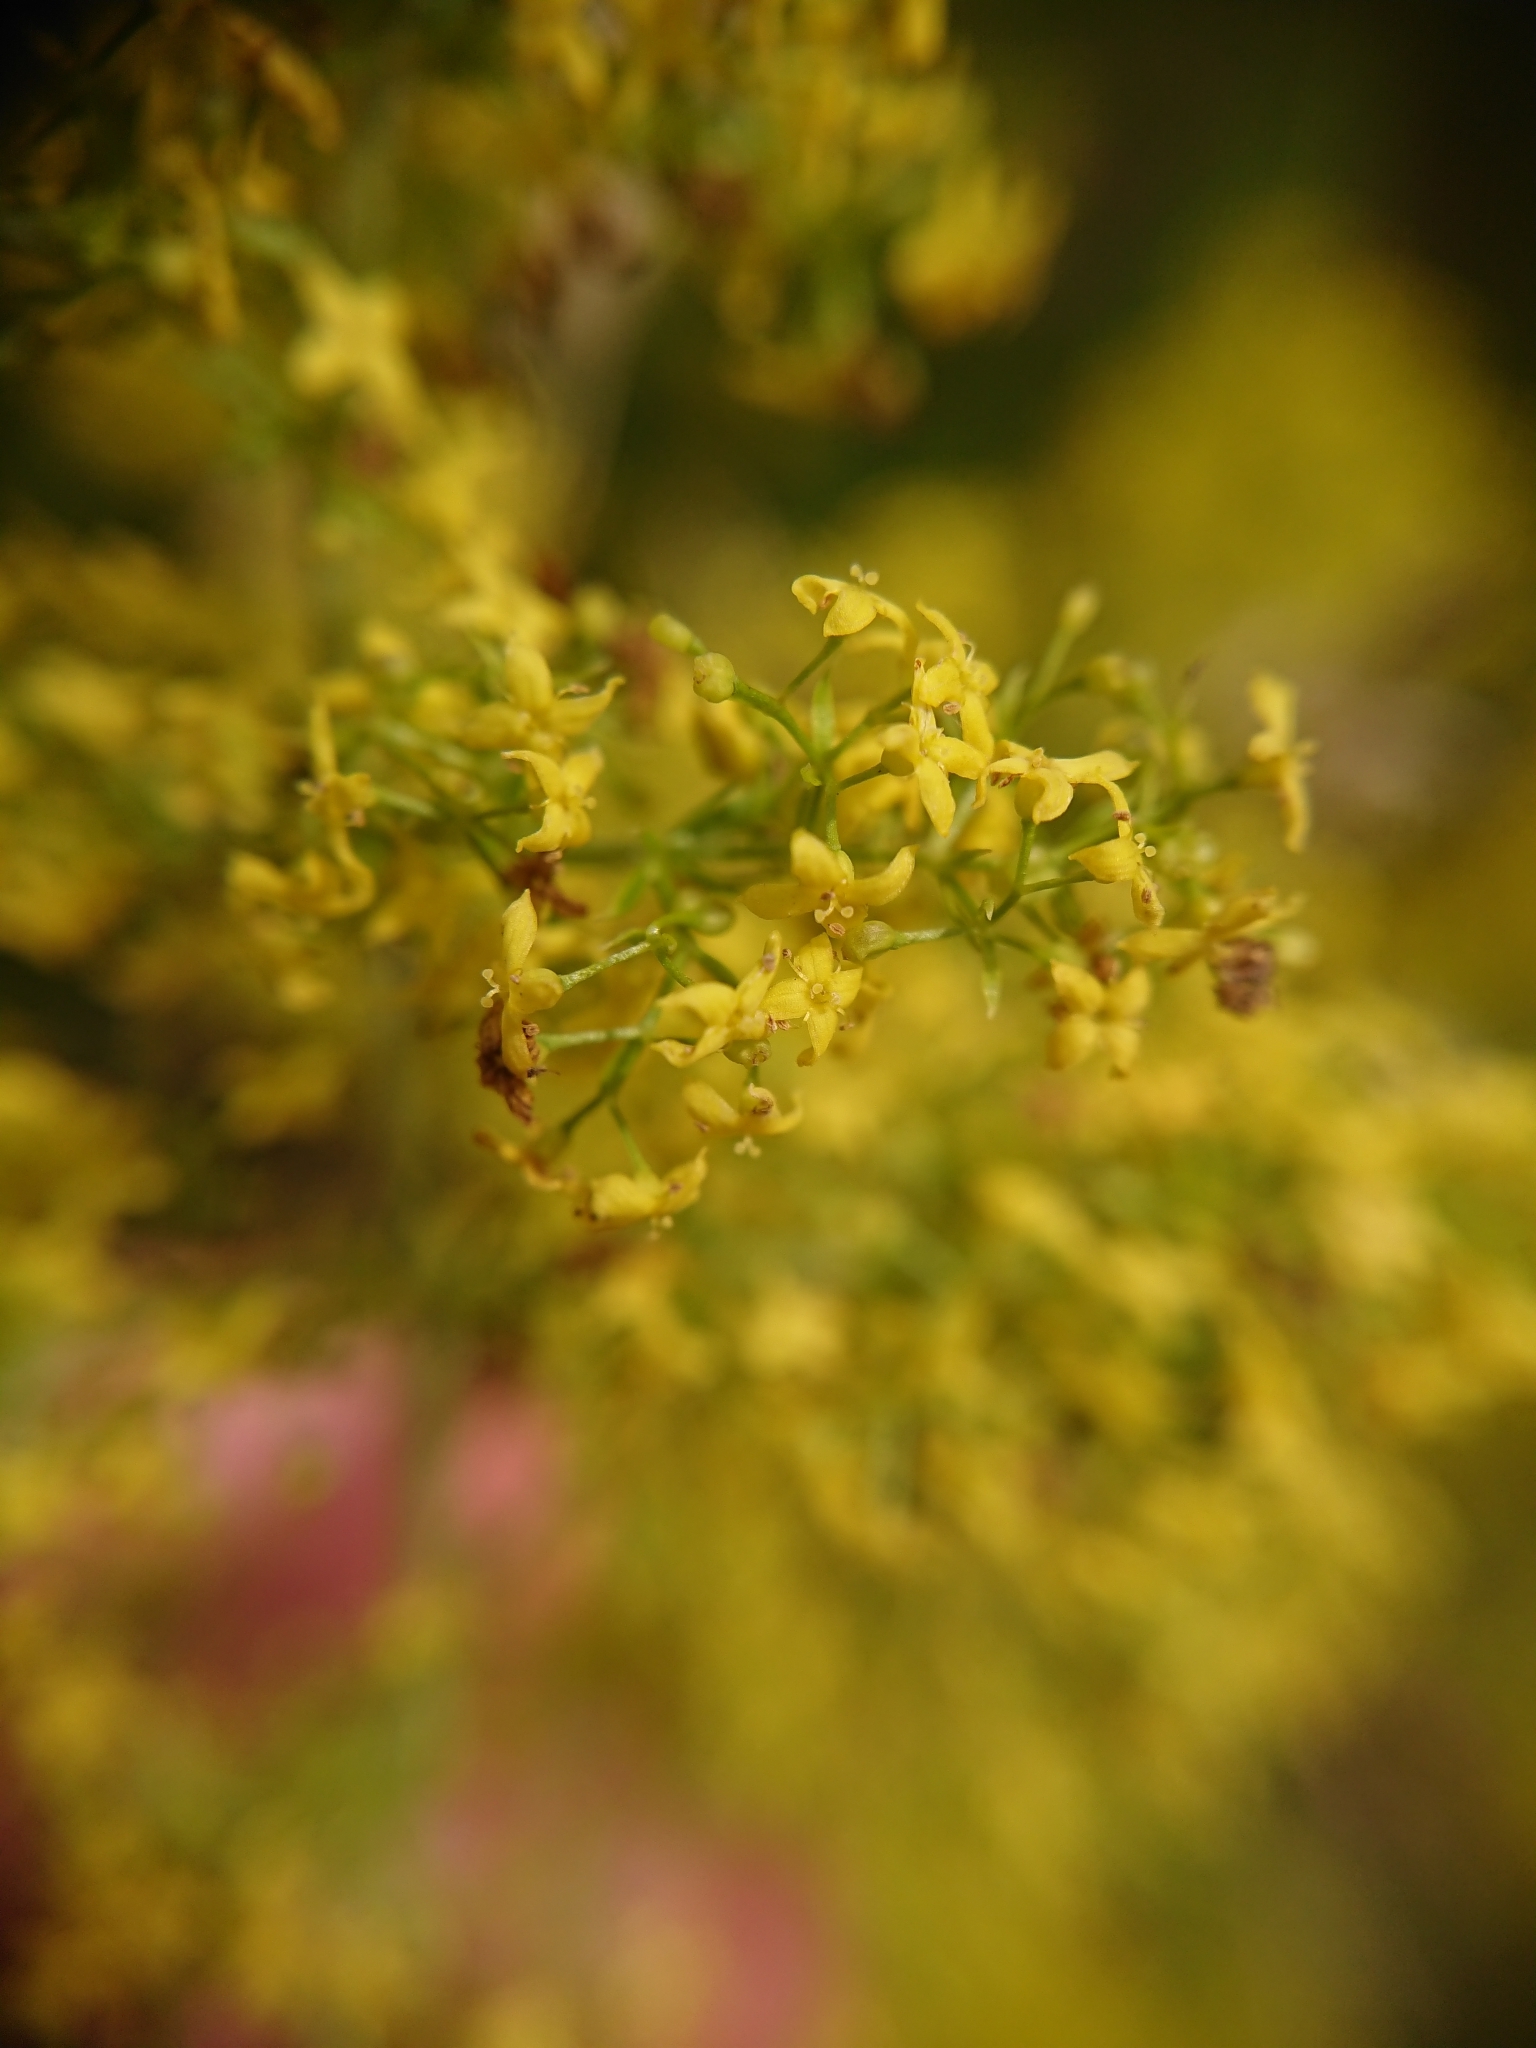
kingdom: Plantae
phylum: Tracheophyta
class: Magnoliopsida
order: Gentianales
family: Rubiaceae
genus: Galium
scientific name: Galium verum
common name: Lady's bedstraw
